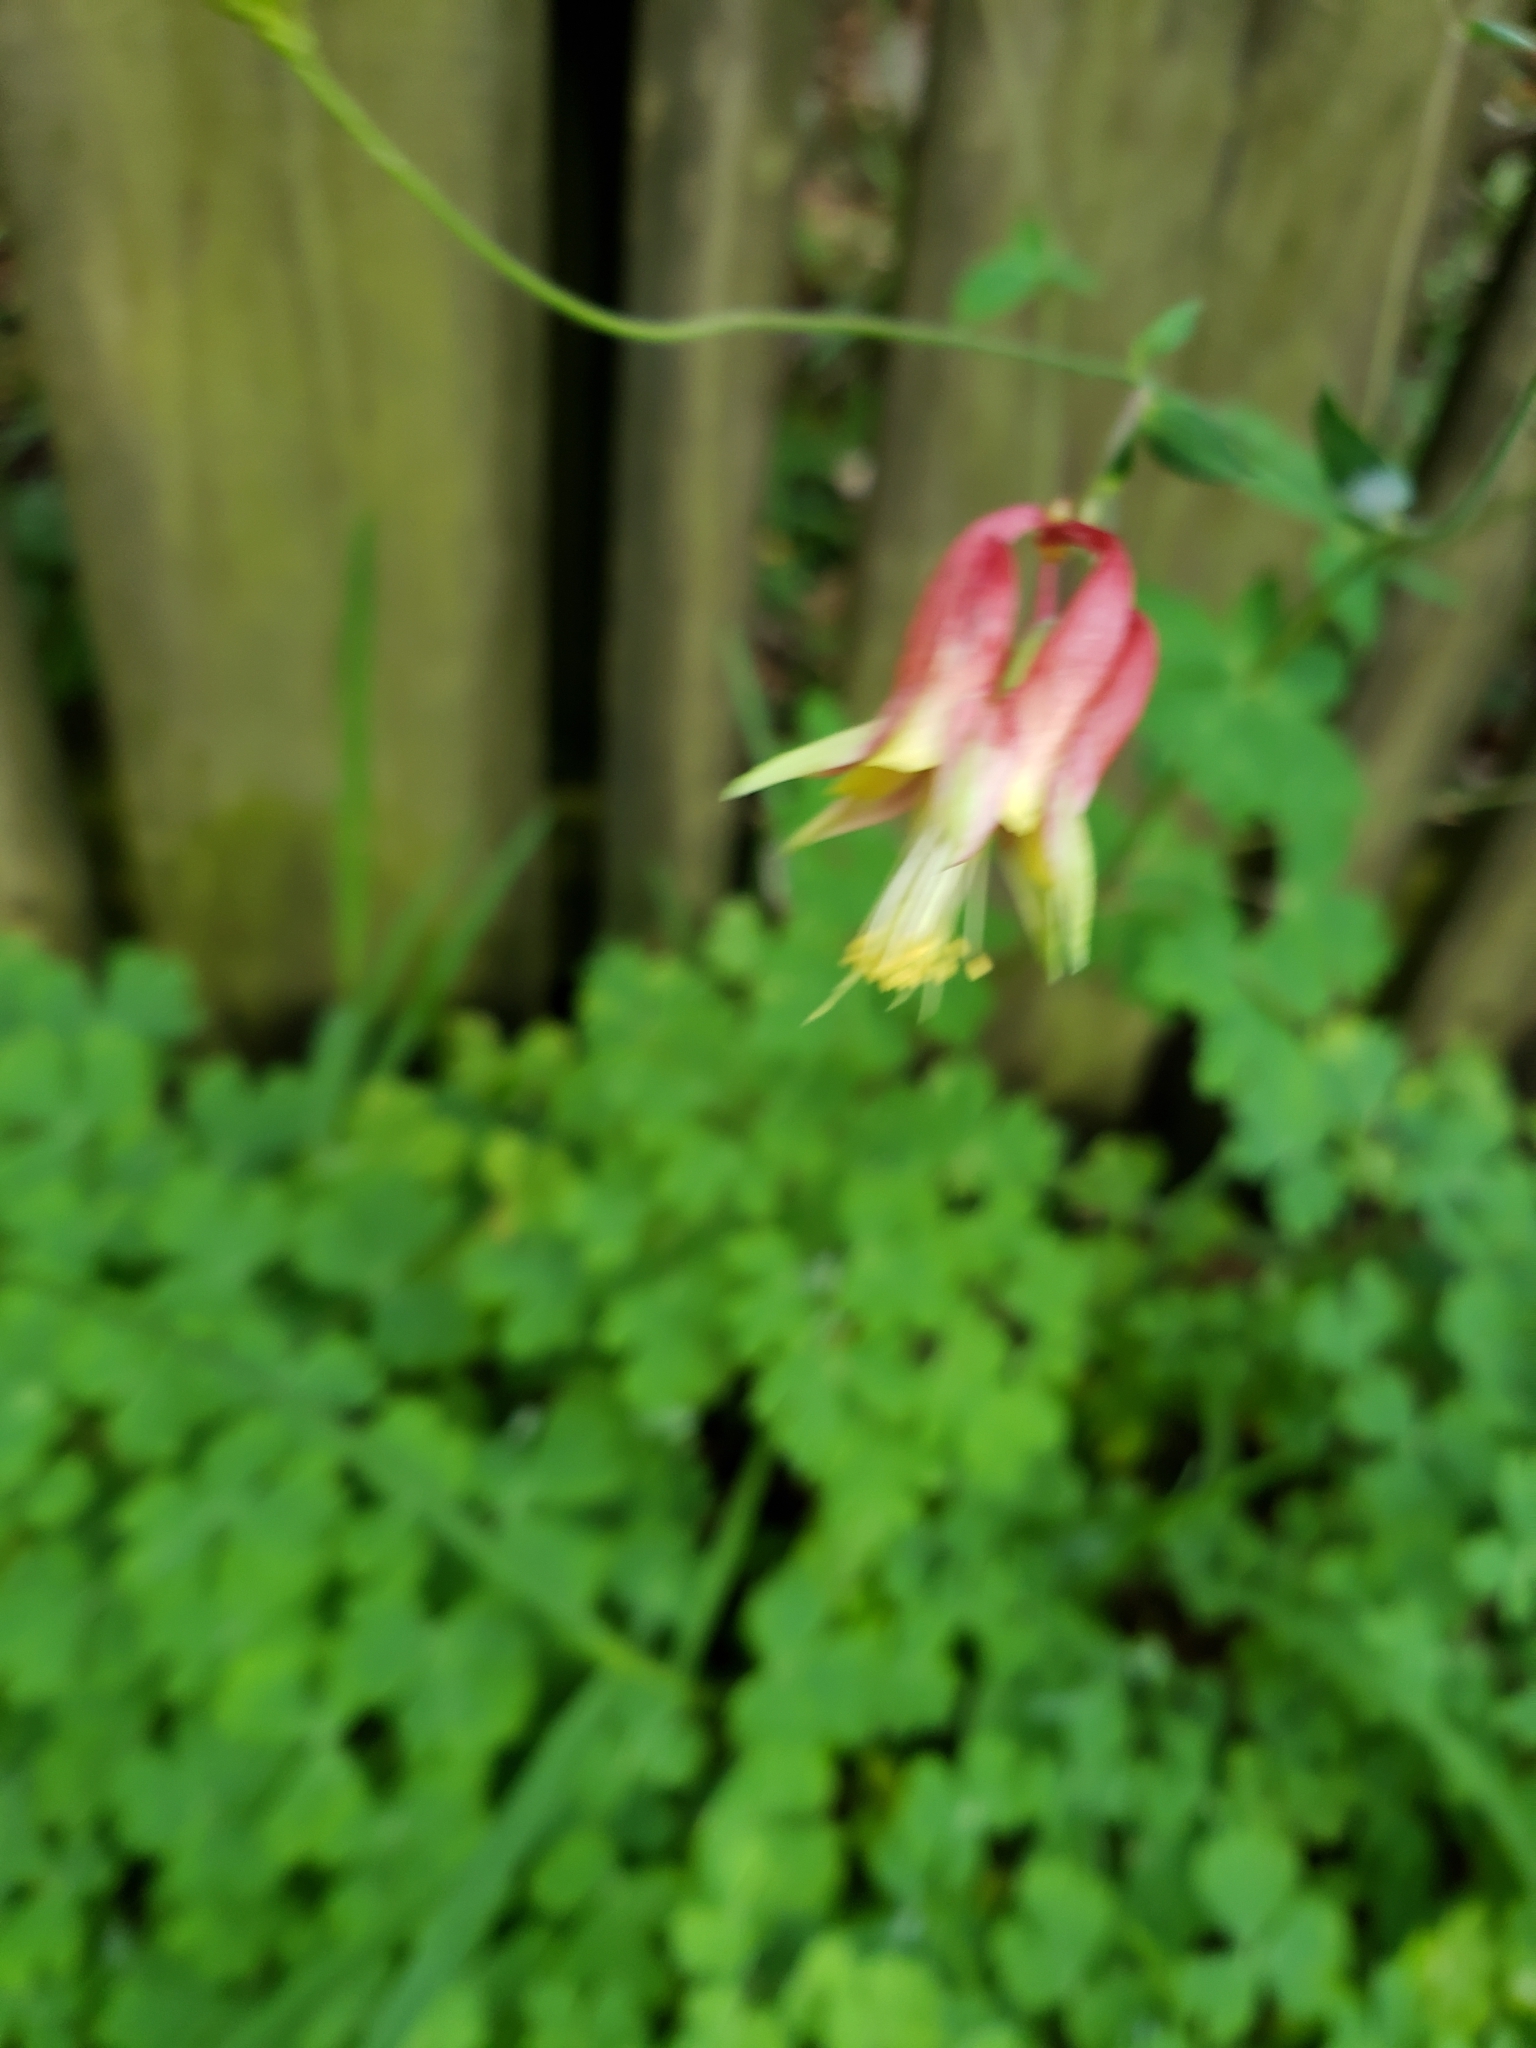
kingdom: Plantae
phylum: Tracheophyta
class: Magnoliopsida
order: Ranunculales
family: Ranunculaceae
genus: Aquilegia
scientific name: Aquilegia canadensis
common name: American columbine
